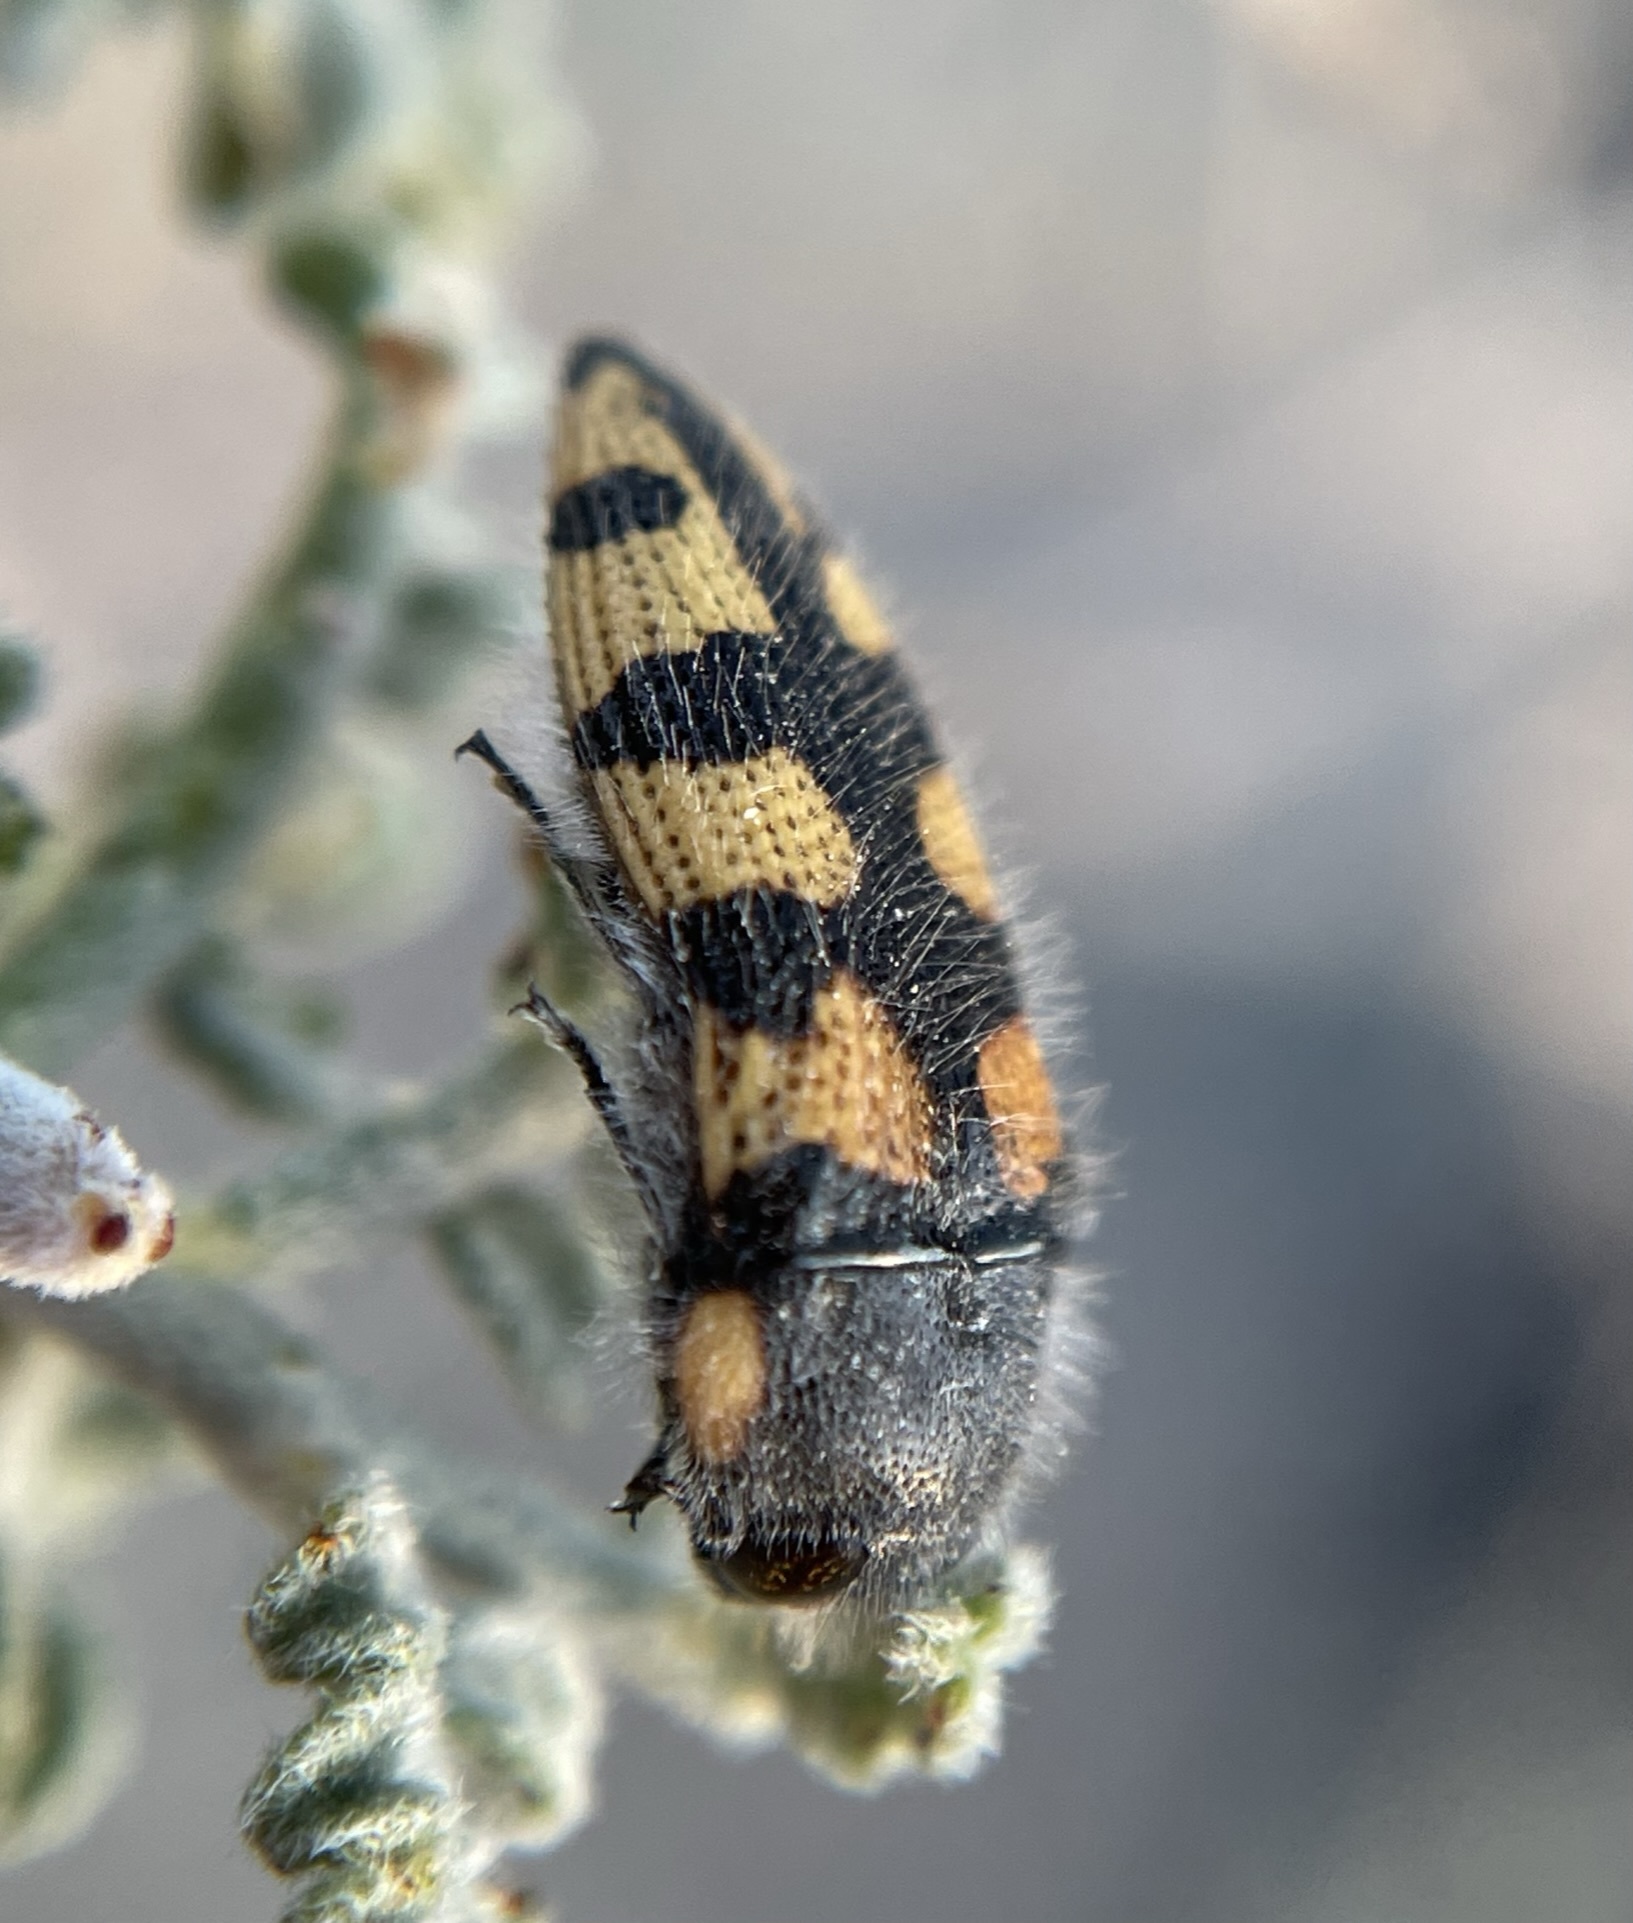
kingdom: Animalia
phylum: Arthropoda
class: Insecta
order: Coleoptera
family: Buprestidae
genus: Acmaeodera
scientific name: Acmaeodera tuta
